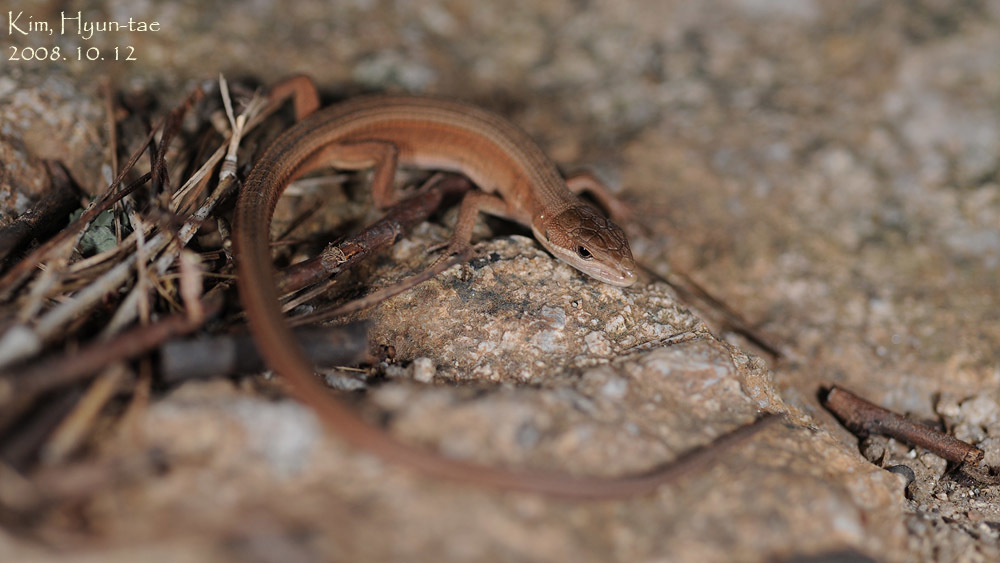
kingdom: Animalia
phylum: Chordata
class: Squamata
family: Lacertidae
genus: Takydromus
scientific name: Takydromus wolteri
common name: Mountain grass lizard
